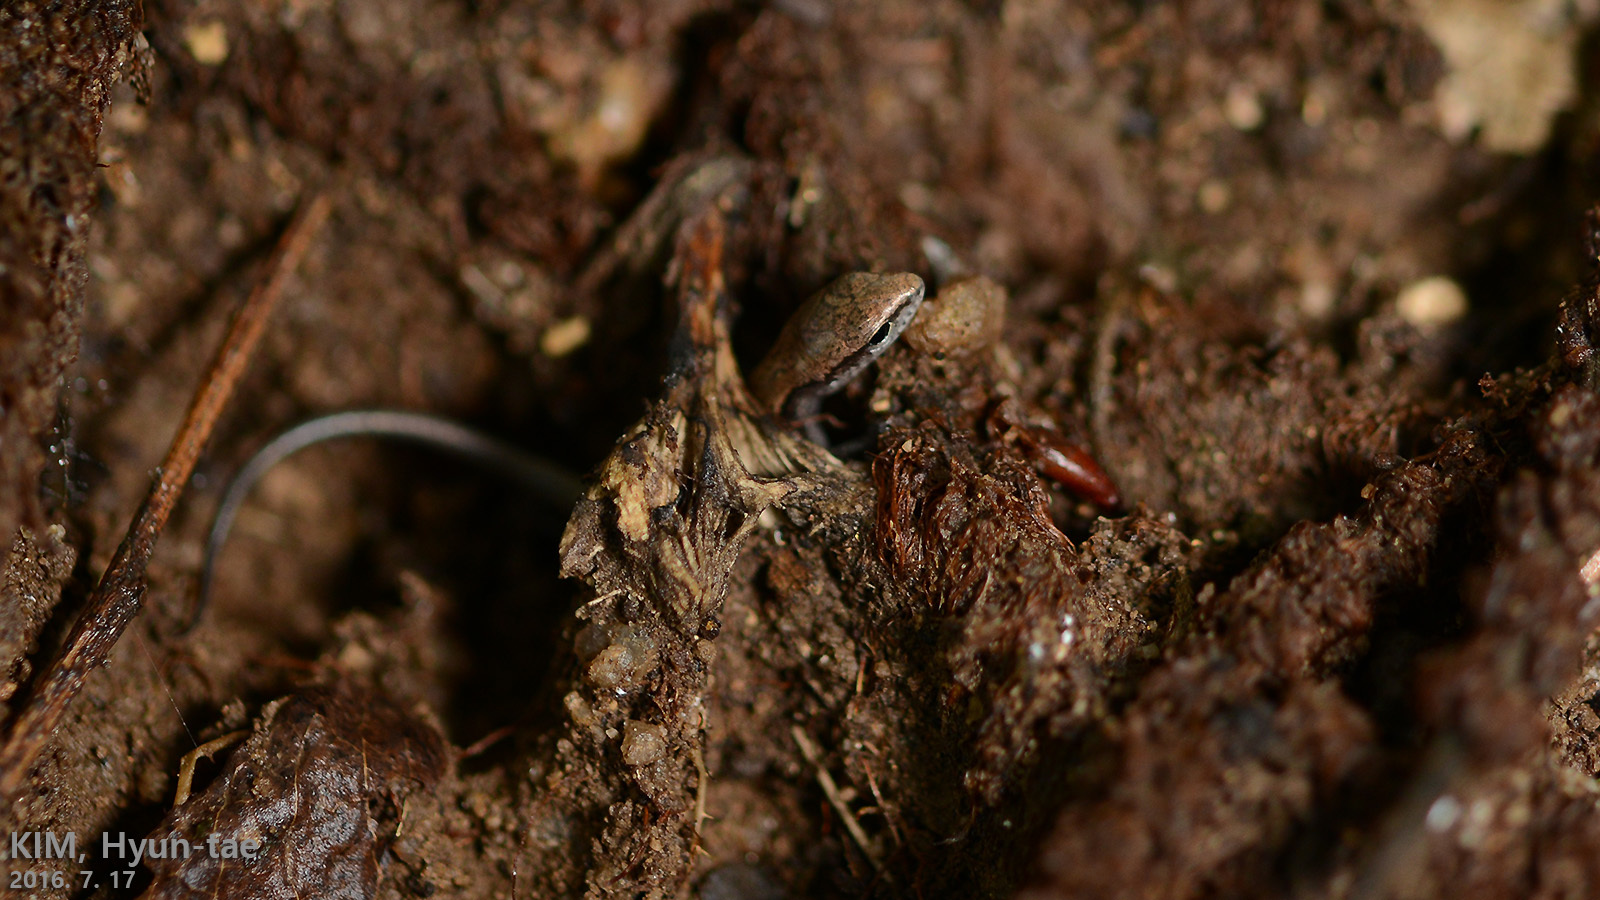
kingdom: Animalia
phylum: Chordata
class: Squamata
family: Scincidae
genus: Scincella
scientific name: Scincella vandenburghi
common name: Tsushima smooth skink
